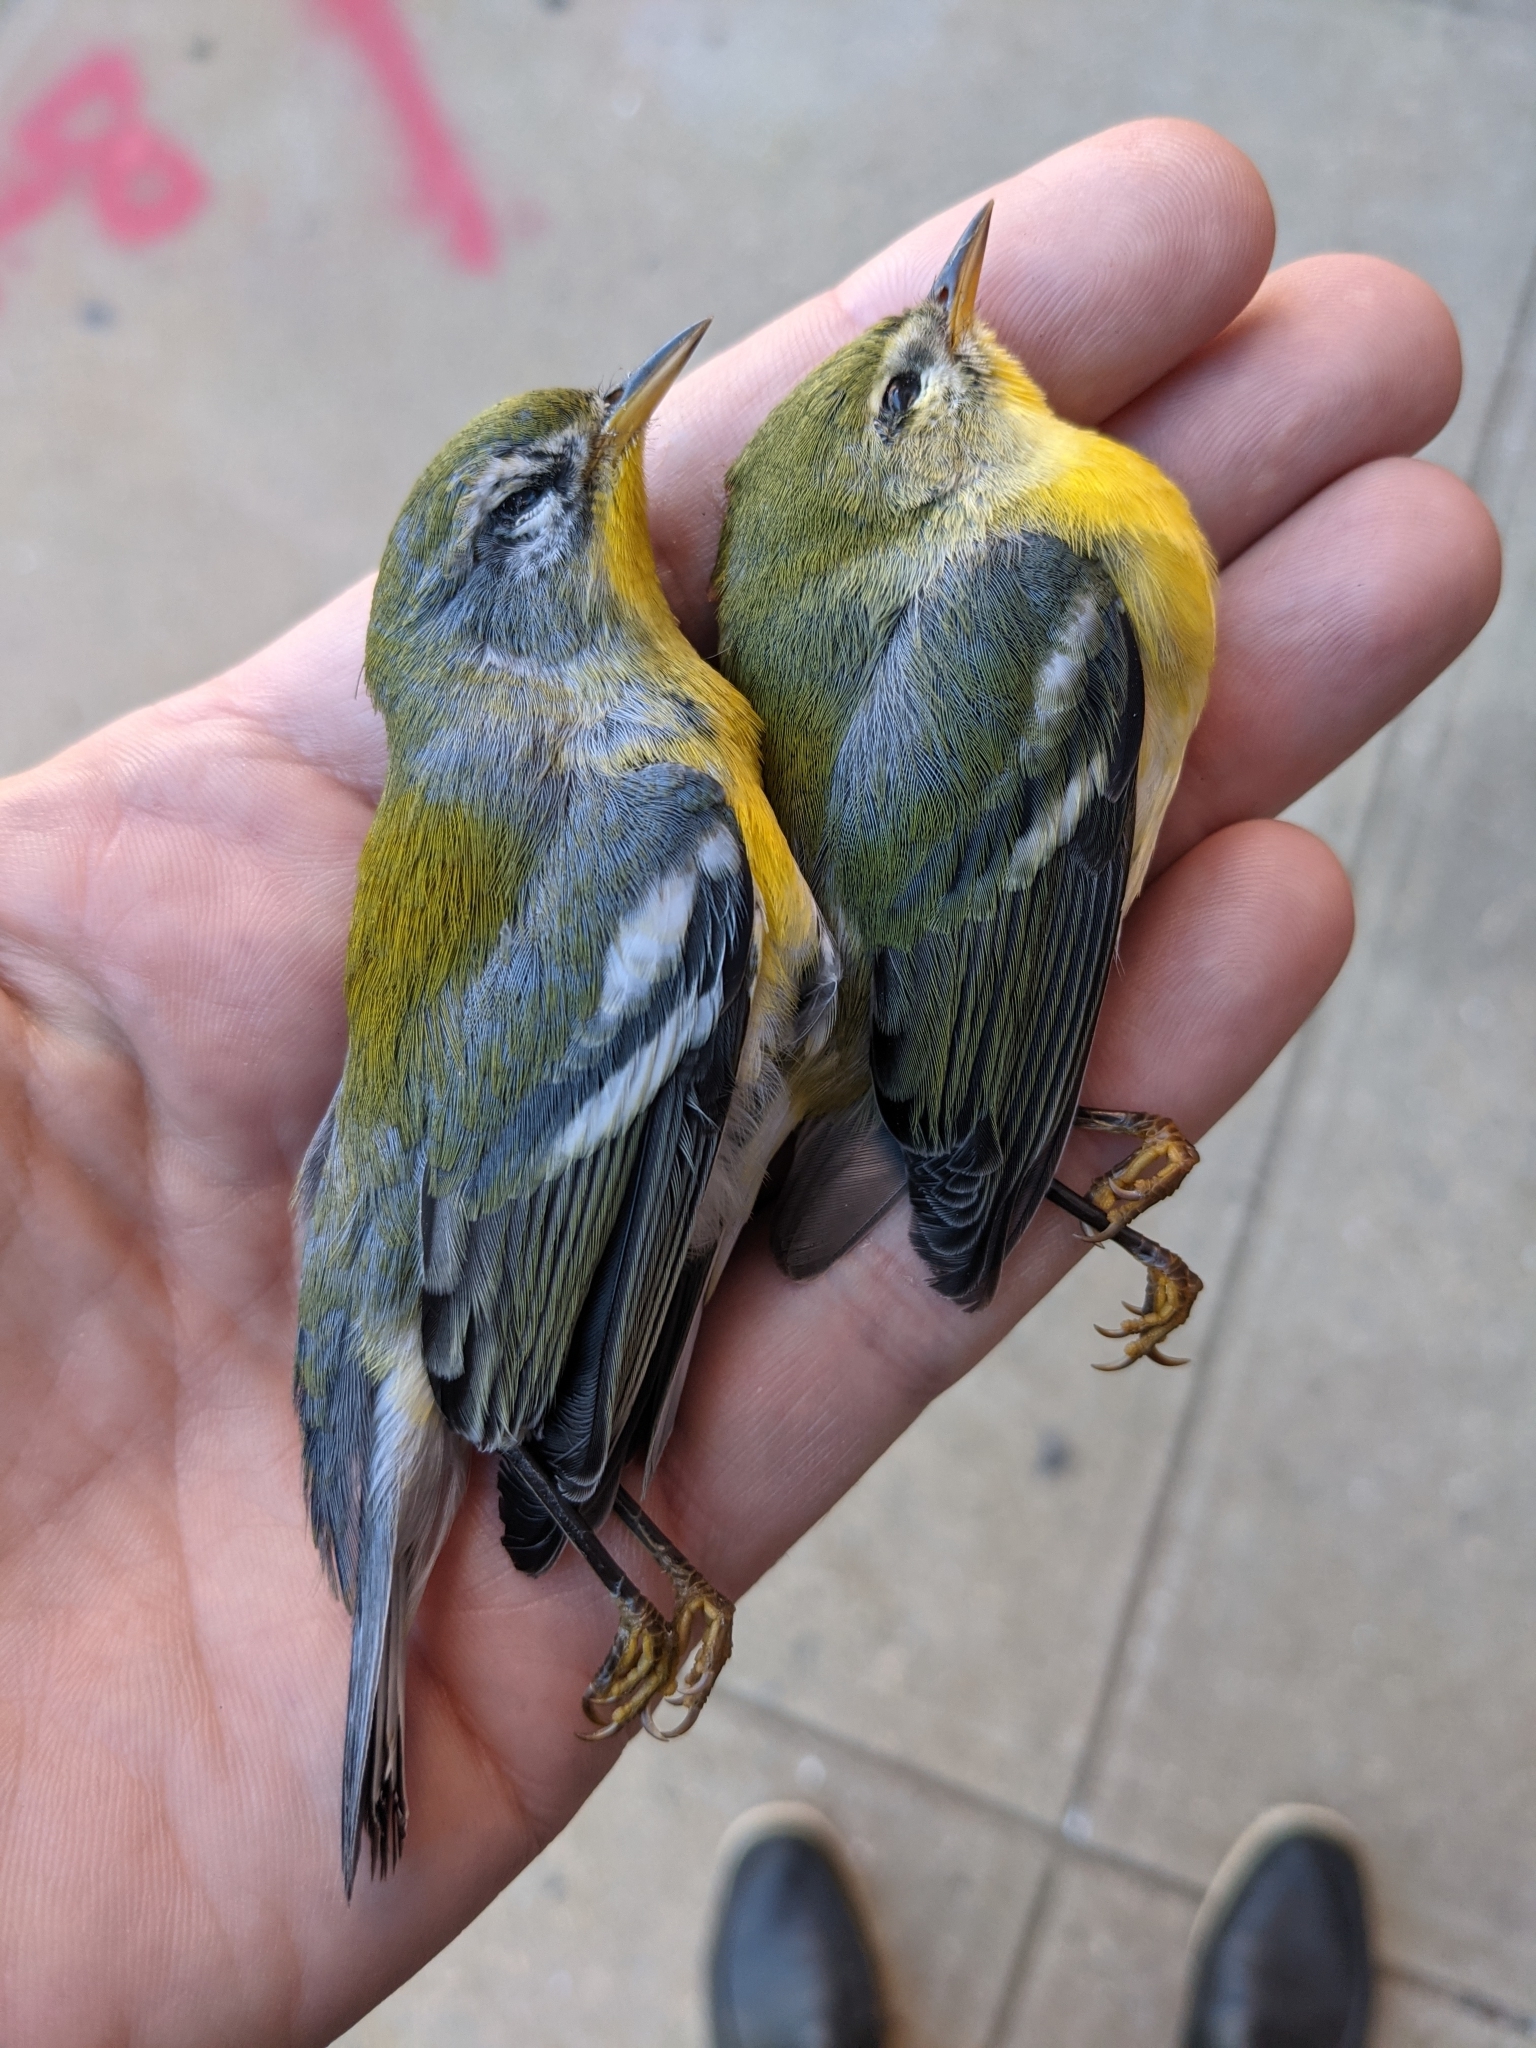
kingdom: Animalia
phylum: Chordata
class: Aves
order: Passeriformes
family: Parulidae
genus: Setophaga
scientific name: Setophaga americana
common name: Northern parula
